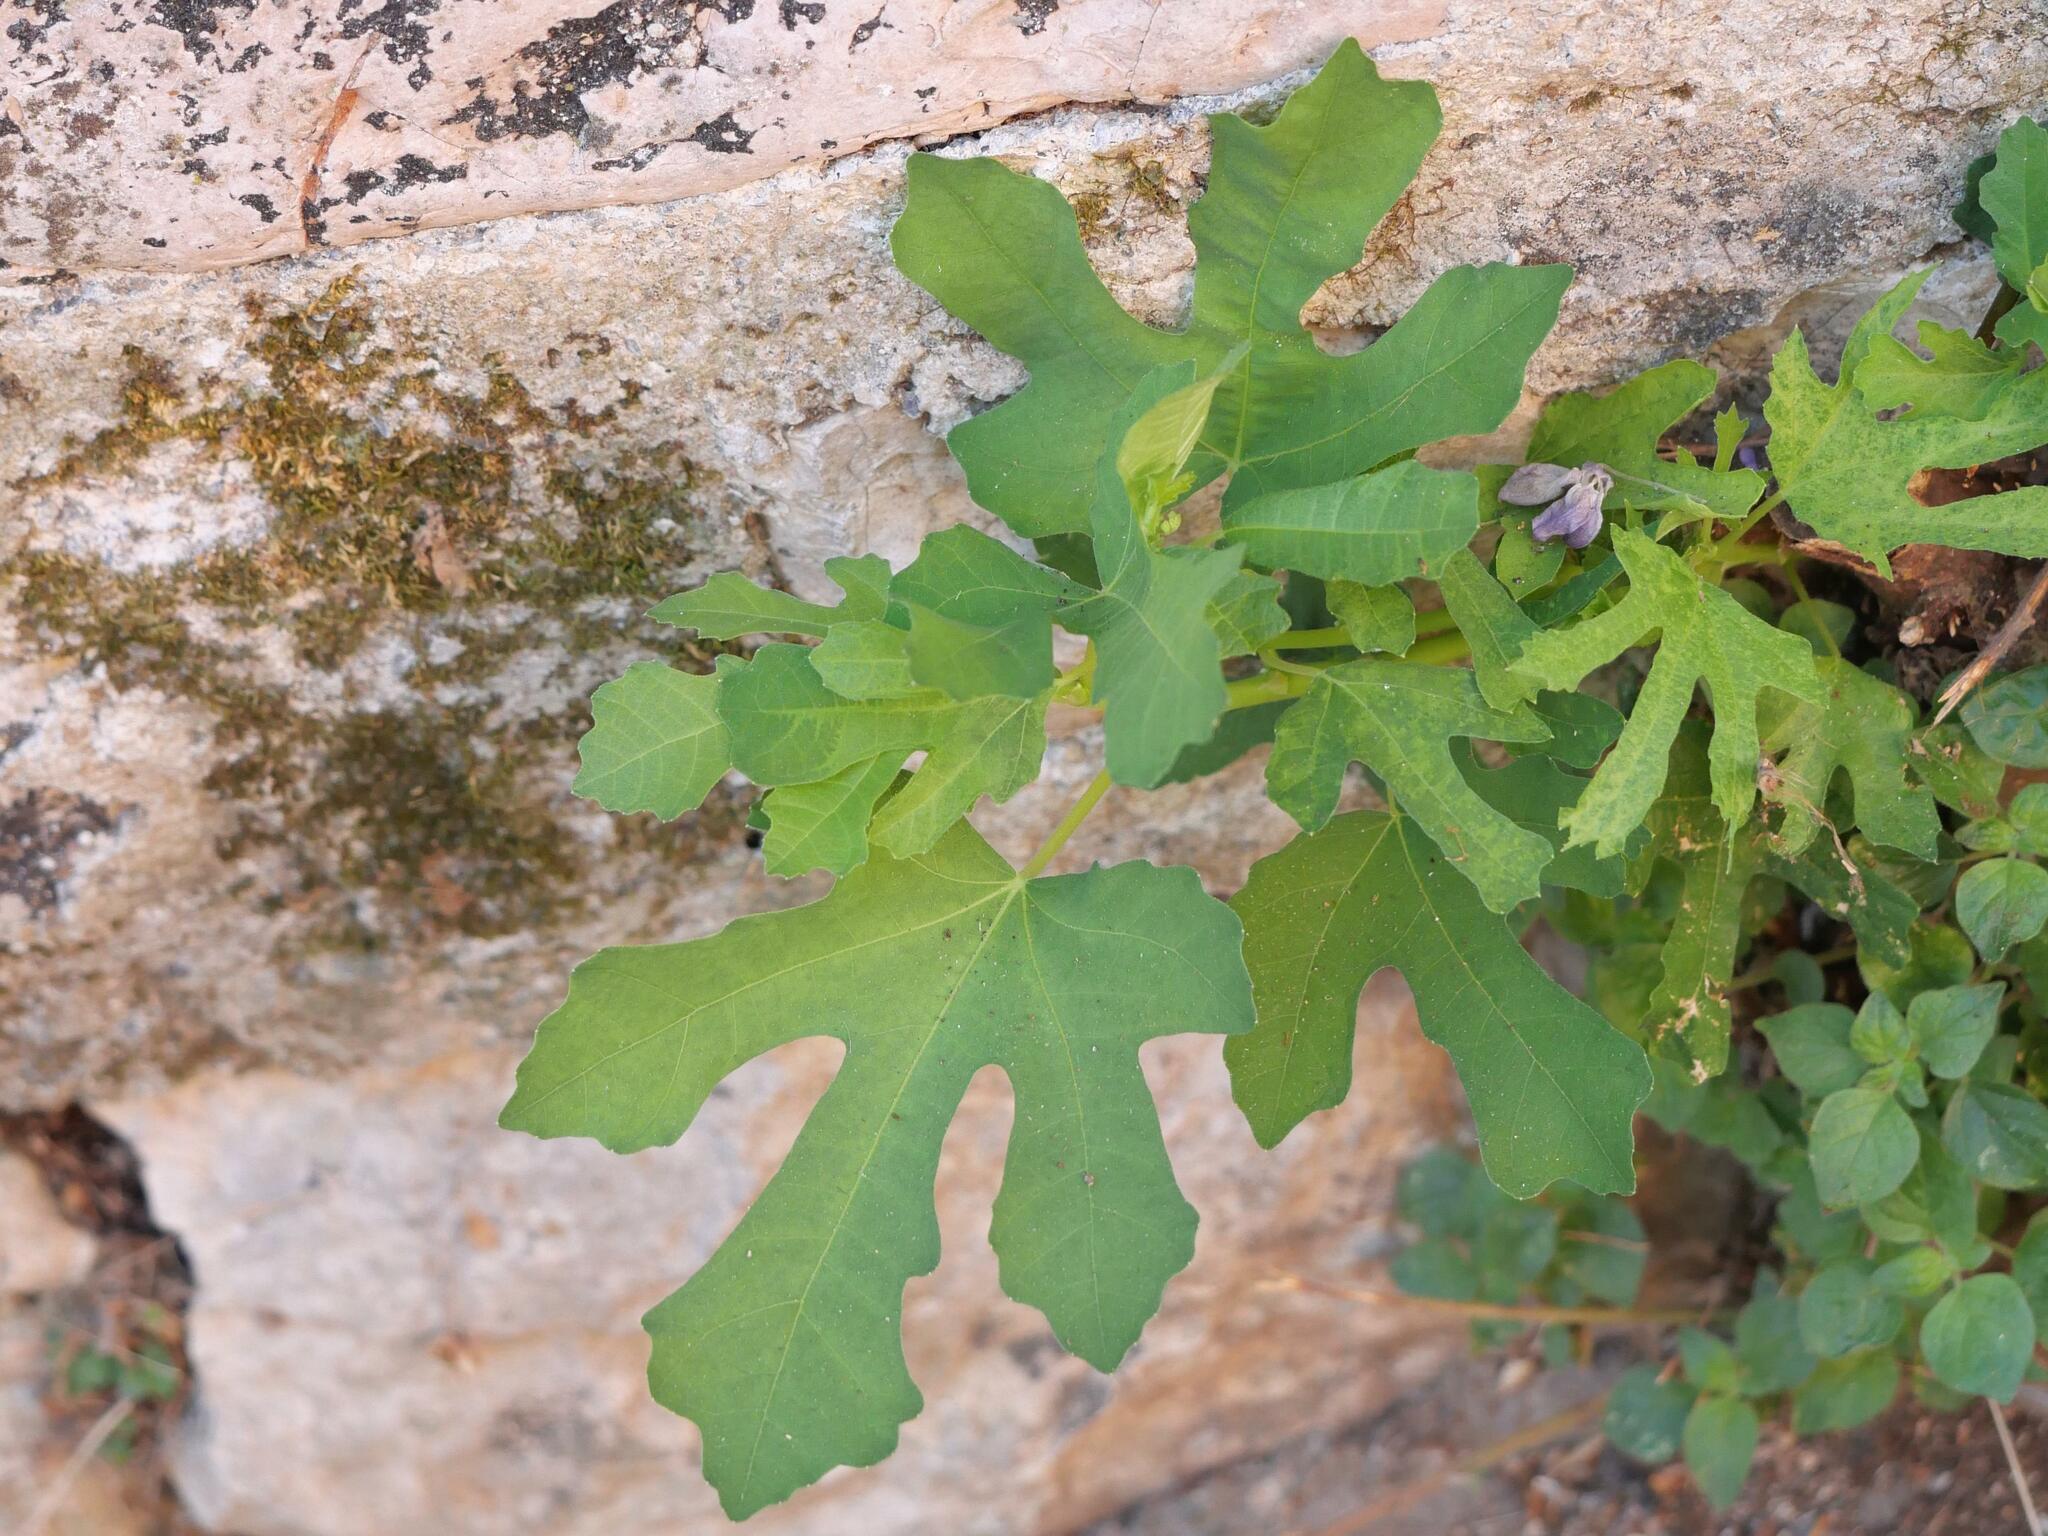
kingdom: Plantae
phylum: Tracheophyta
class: Magnoliopsida
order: Rosales
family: Moraceae
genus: Ficus
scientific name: Ficus carica
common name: Fig
